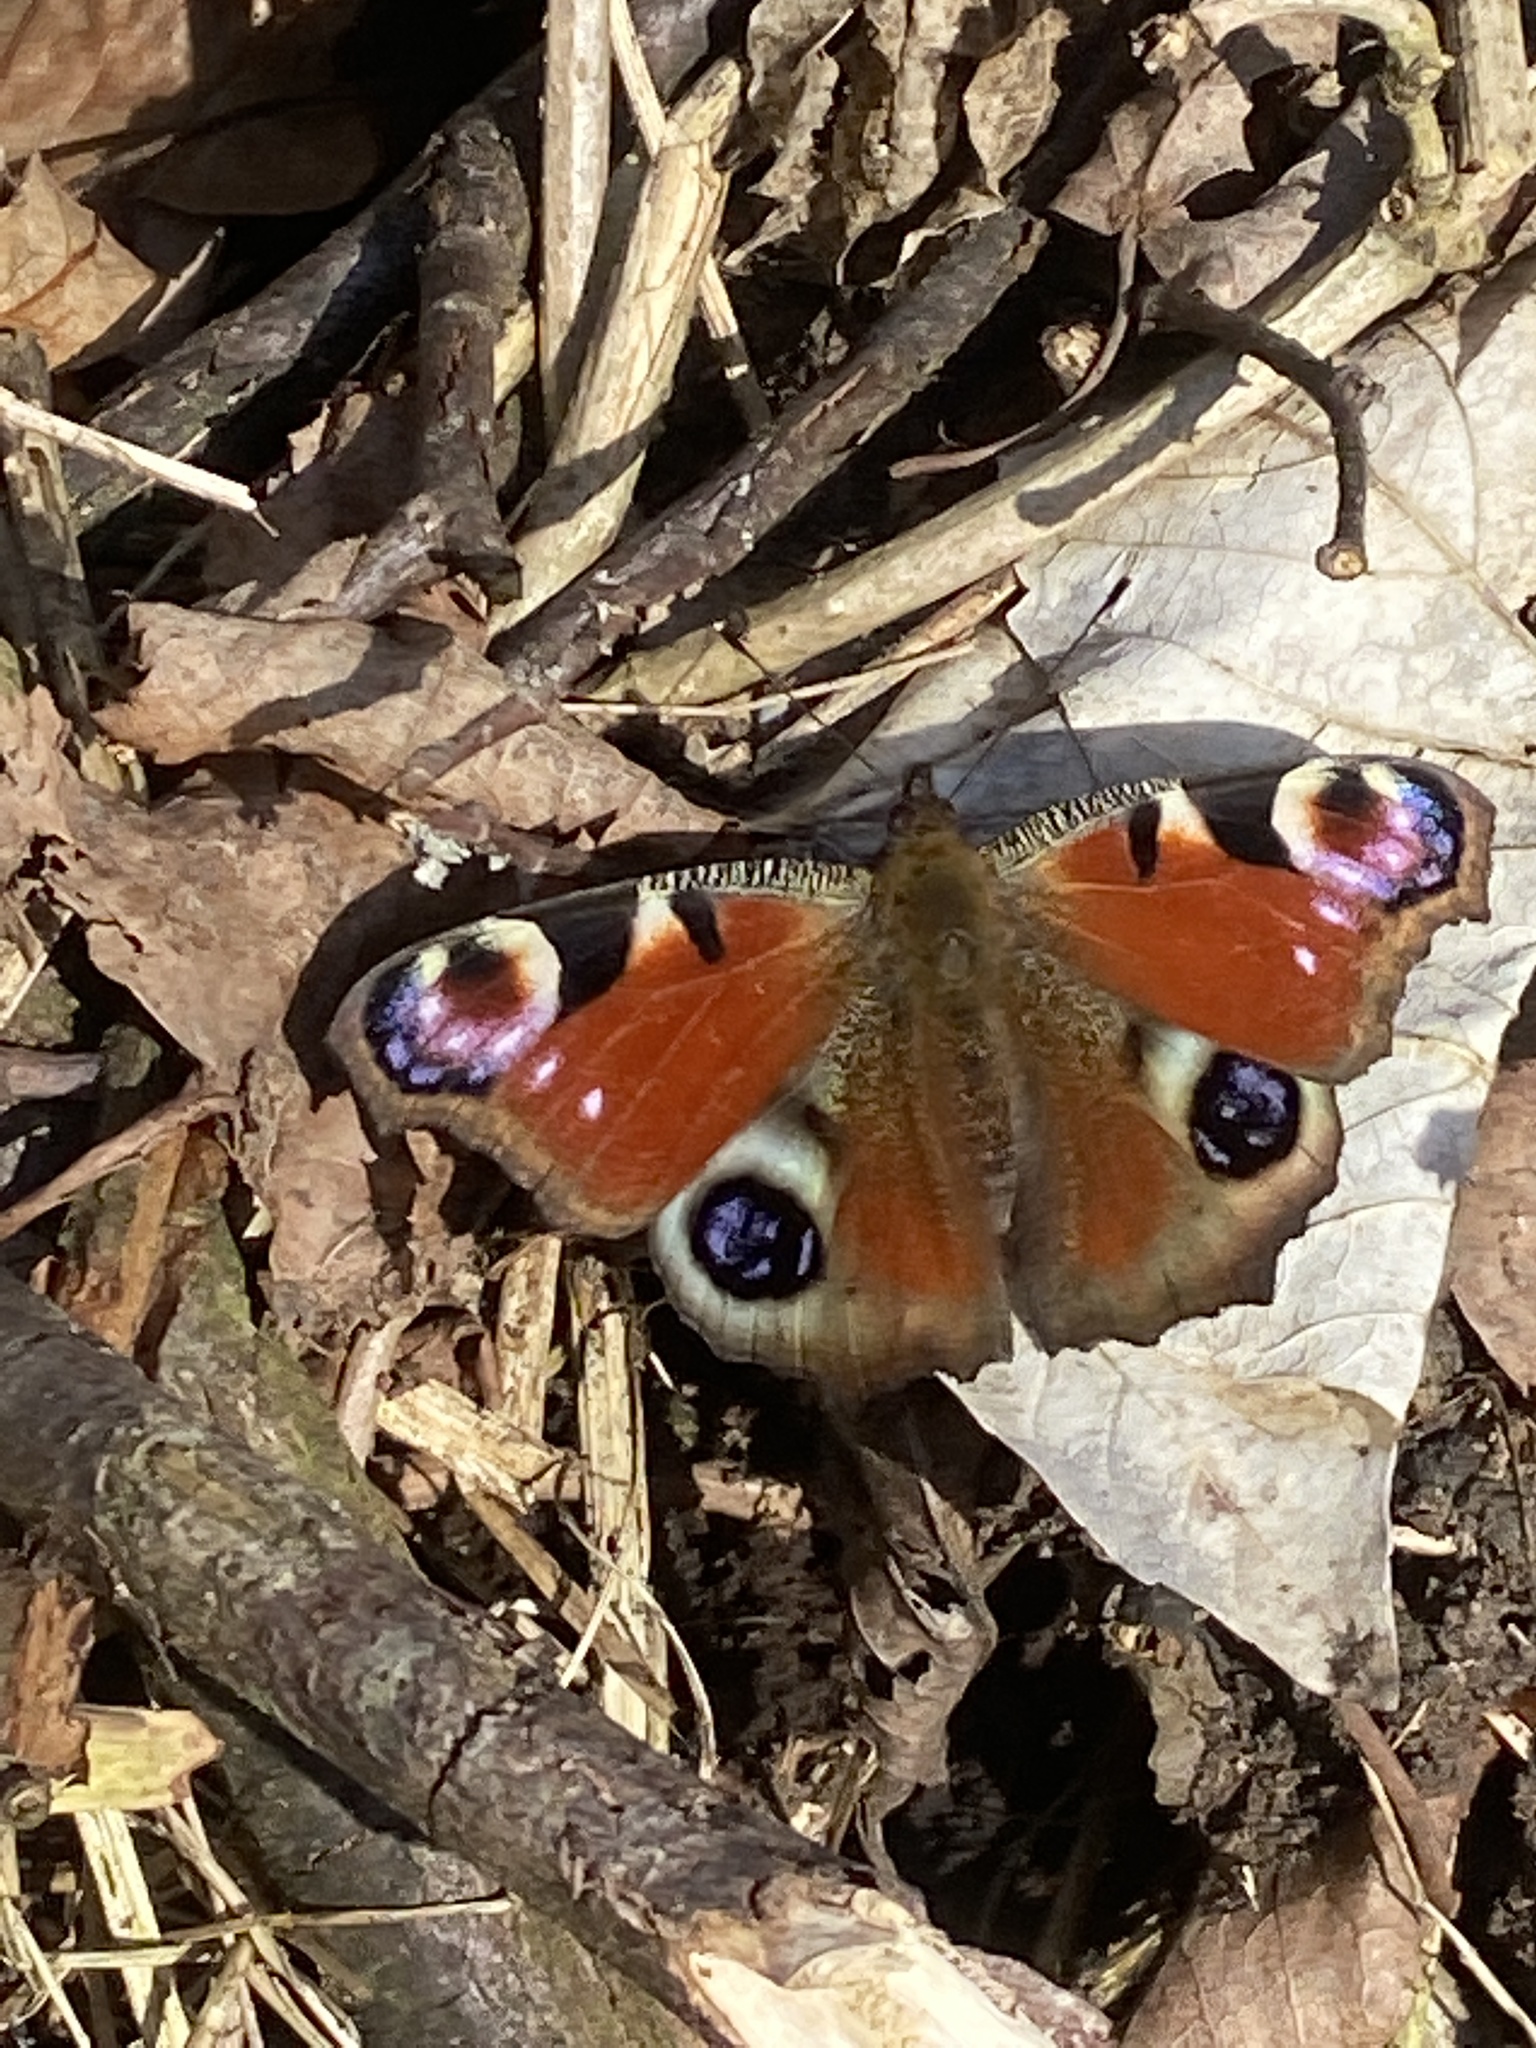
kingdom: Animalia
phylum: Arthropoda
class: Insecta
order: Lepidoptera
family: Nymphalidae
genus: Aglais
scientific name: Aglais io
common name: Peacock
